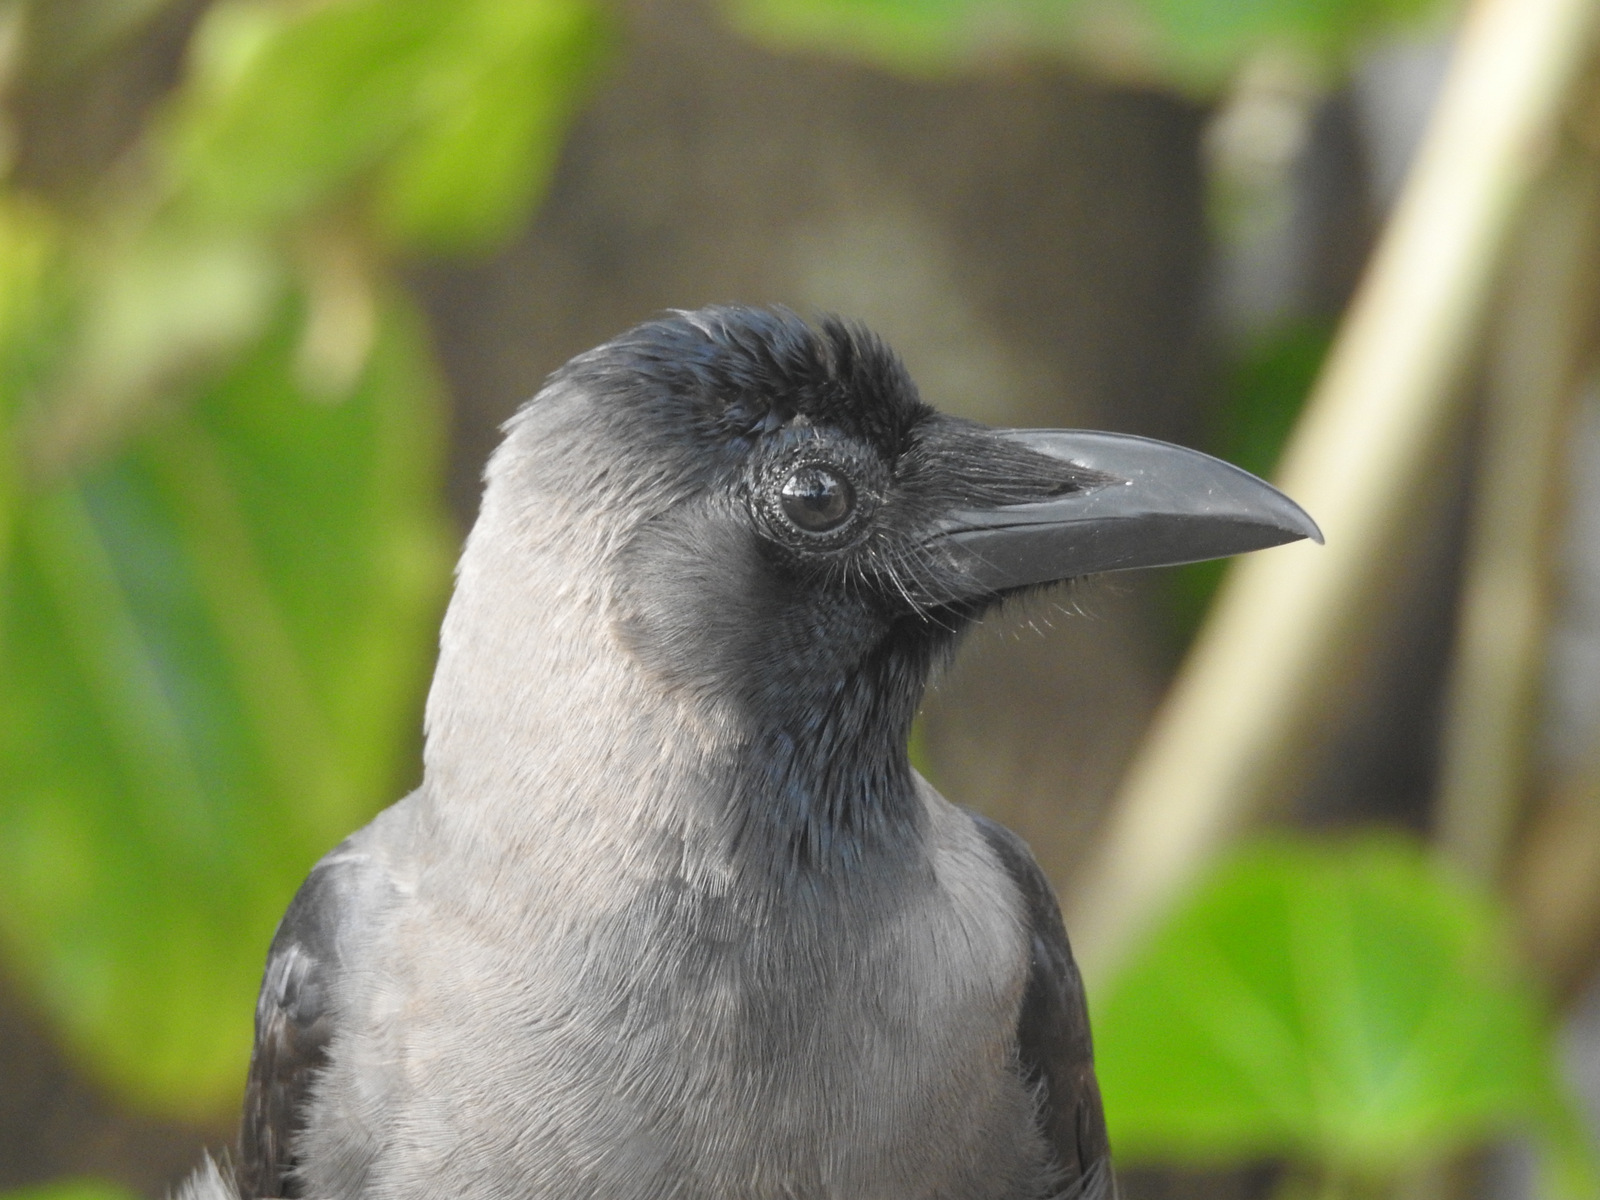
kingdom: Animalia
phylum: Chordata
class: Aves
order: Passeriformes
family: Corvidae
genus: Corvus
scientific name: Corvus splendens
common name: House crow
